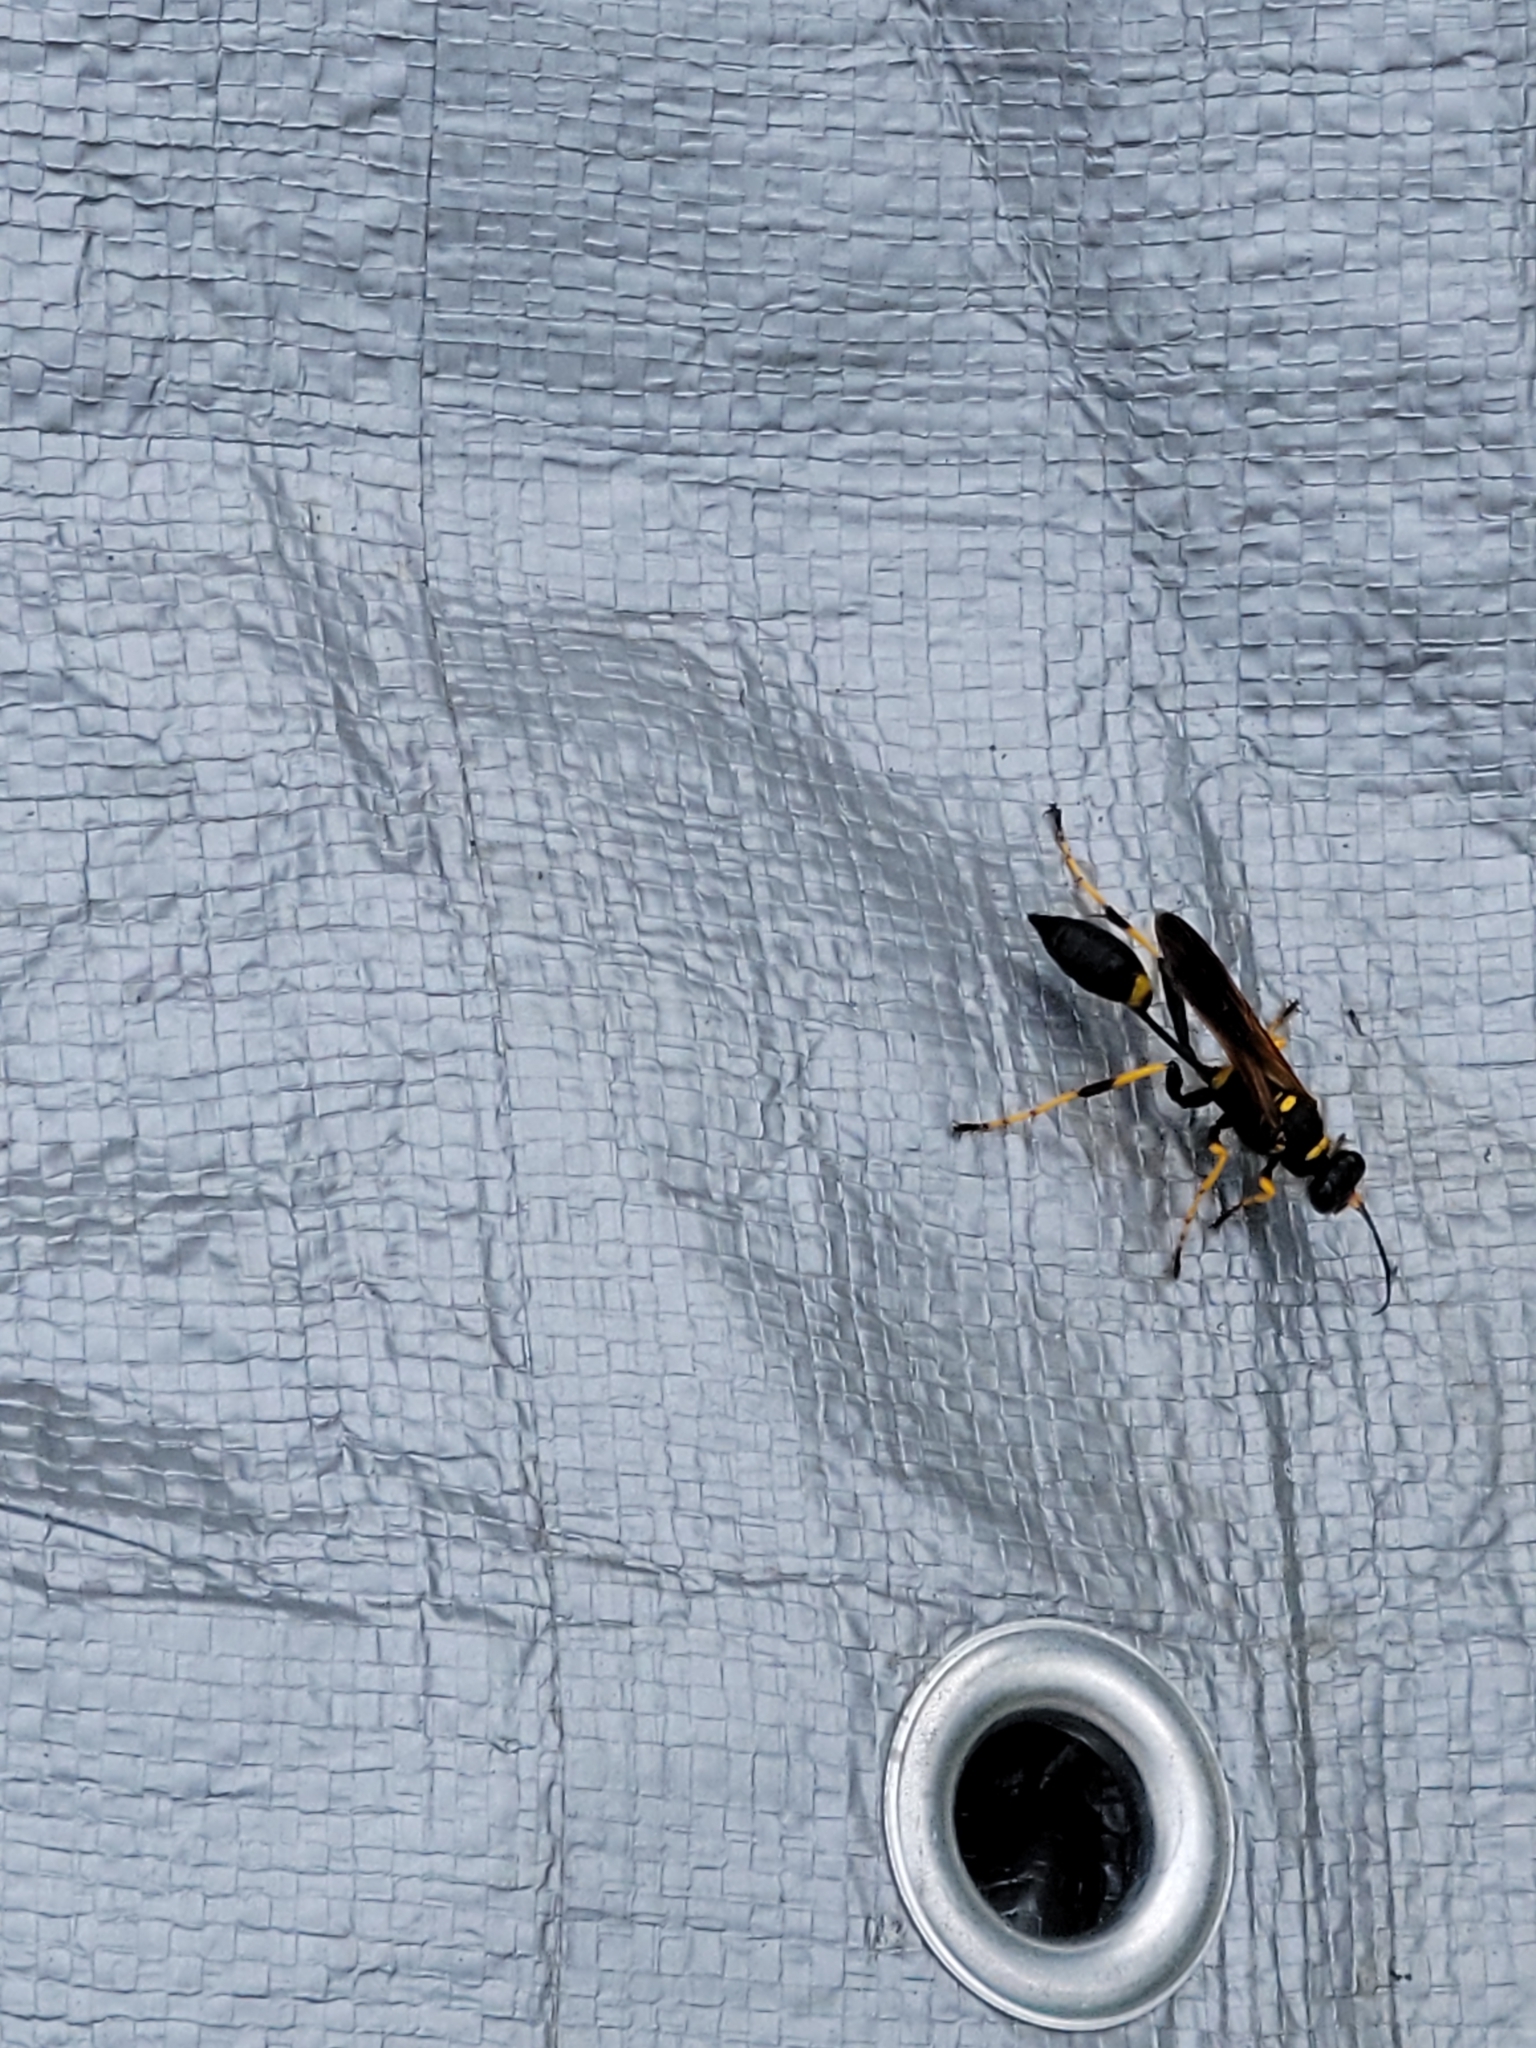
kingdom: Animalia
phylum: Arthropoda
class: Insecta
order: Hymenoptera
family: Sphecidae
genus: Sceliphron
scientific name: Sceliphron caementarium
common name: Mud dauber
